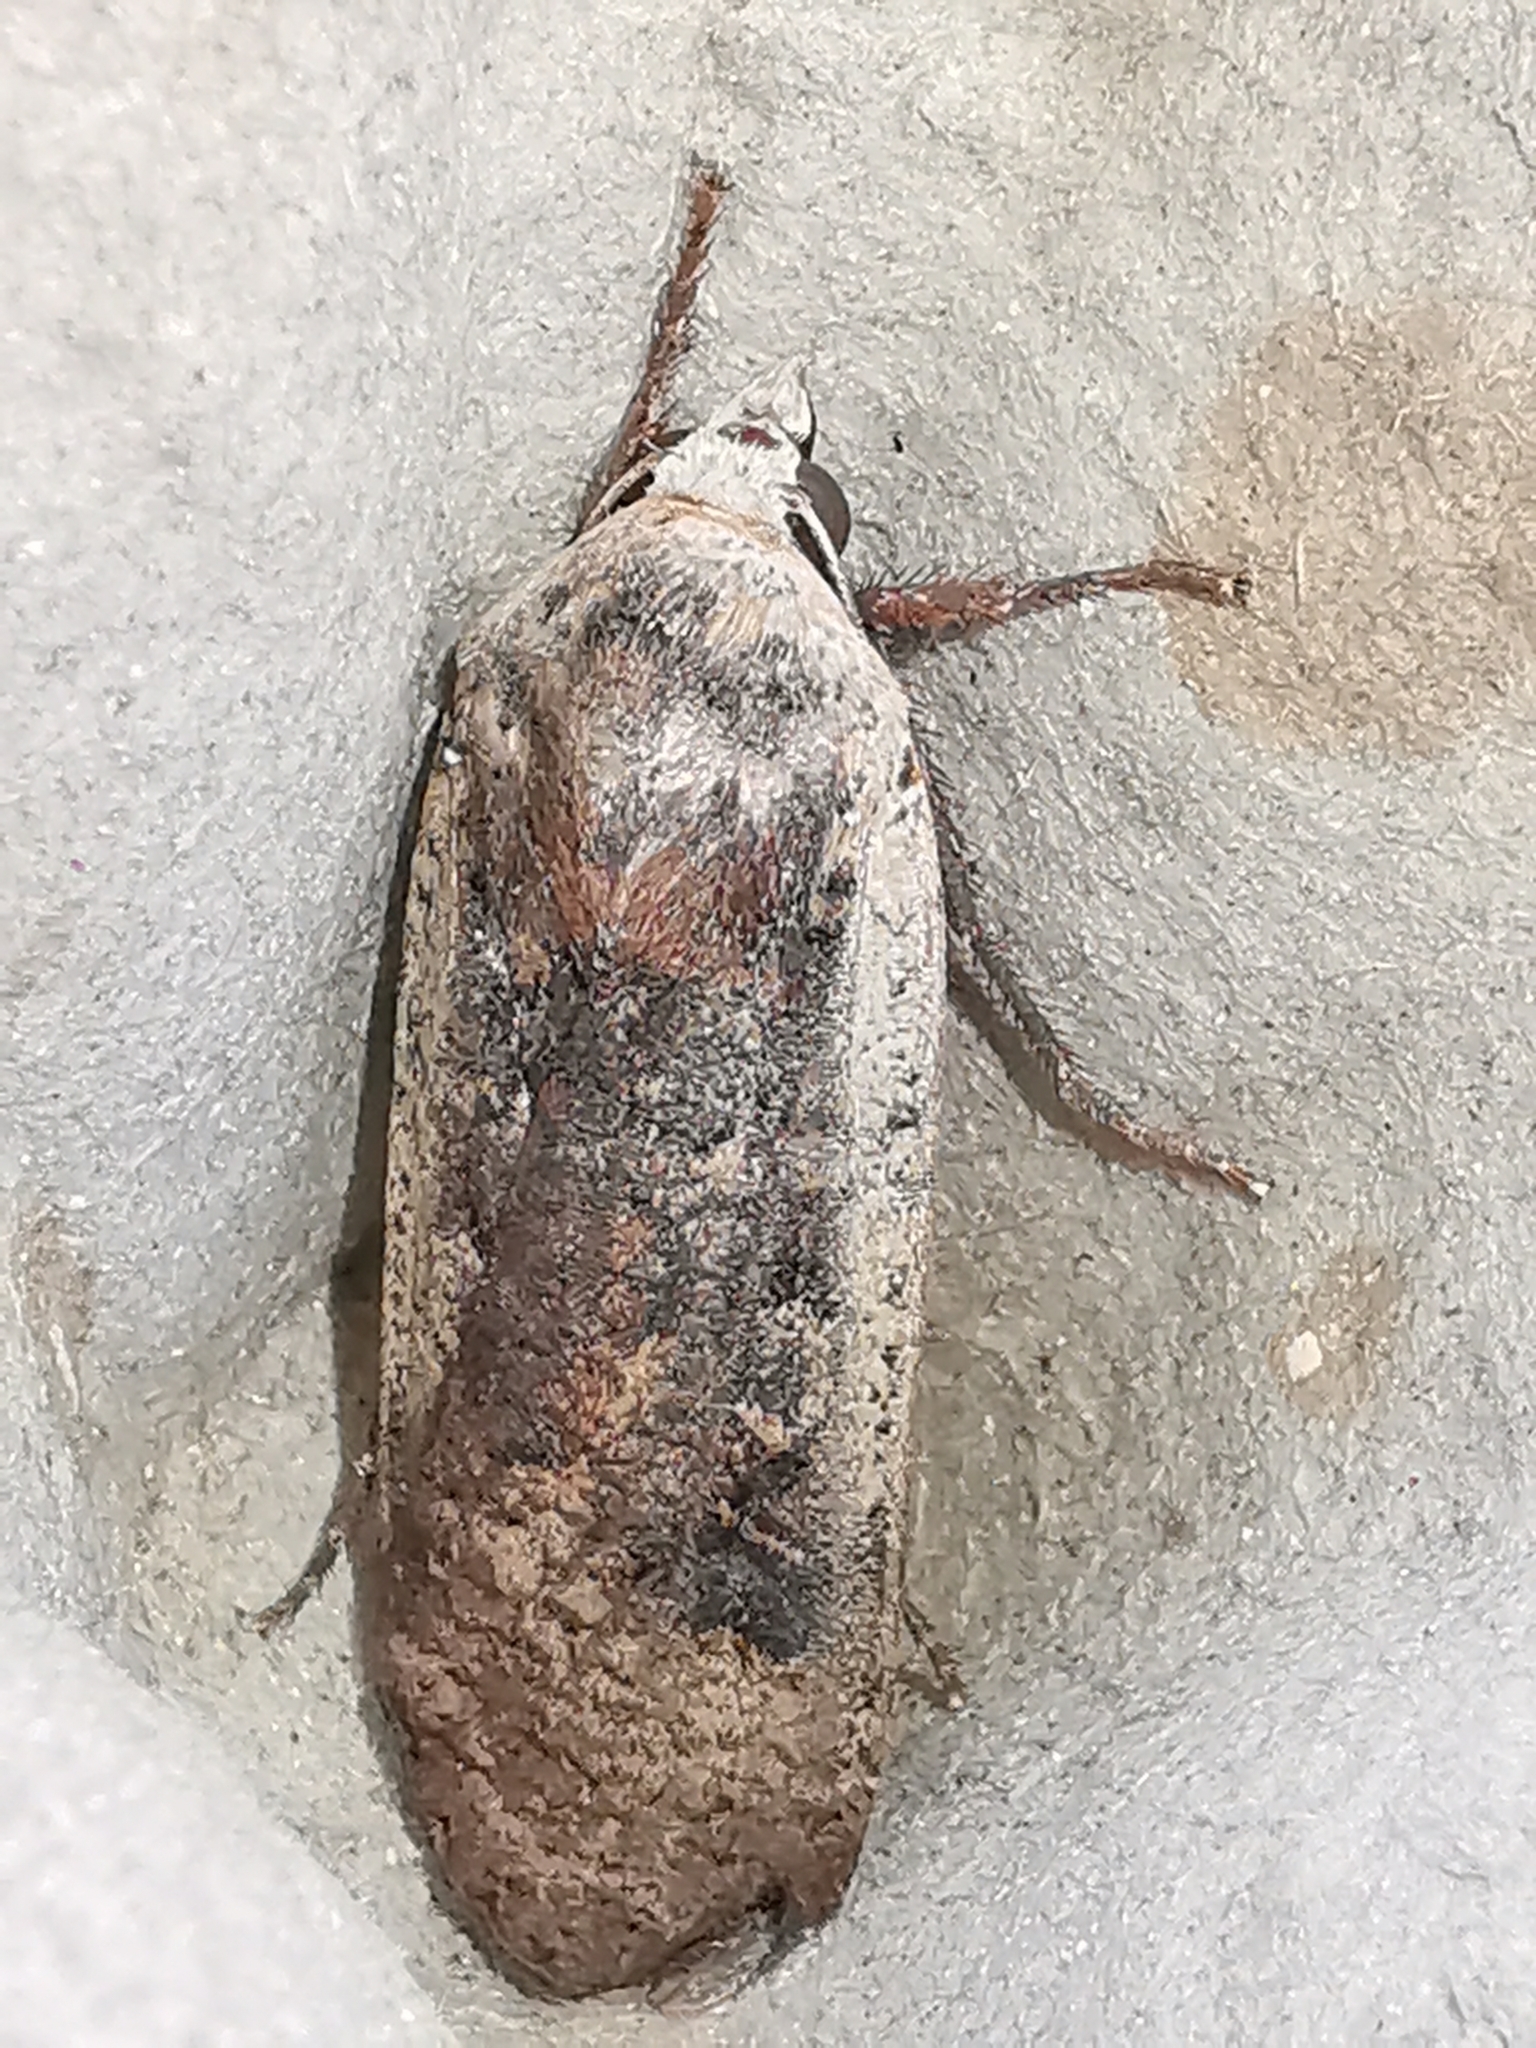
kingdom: Animalia
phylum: Arthropoda
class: Insecta
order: Lepidoptera
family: Noctuidae
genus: Noctua
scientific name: Noctua pronuba
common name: Large yellow underwing
